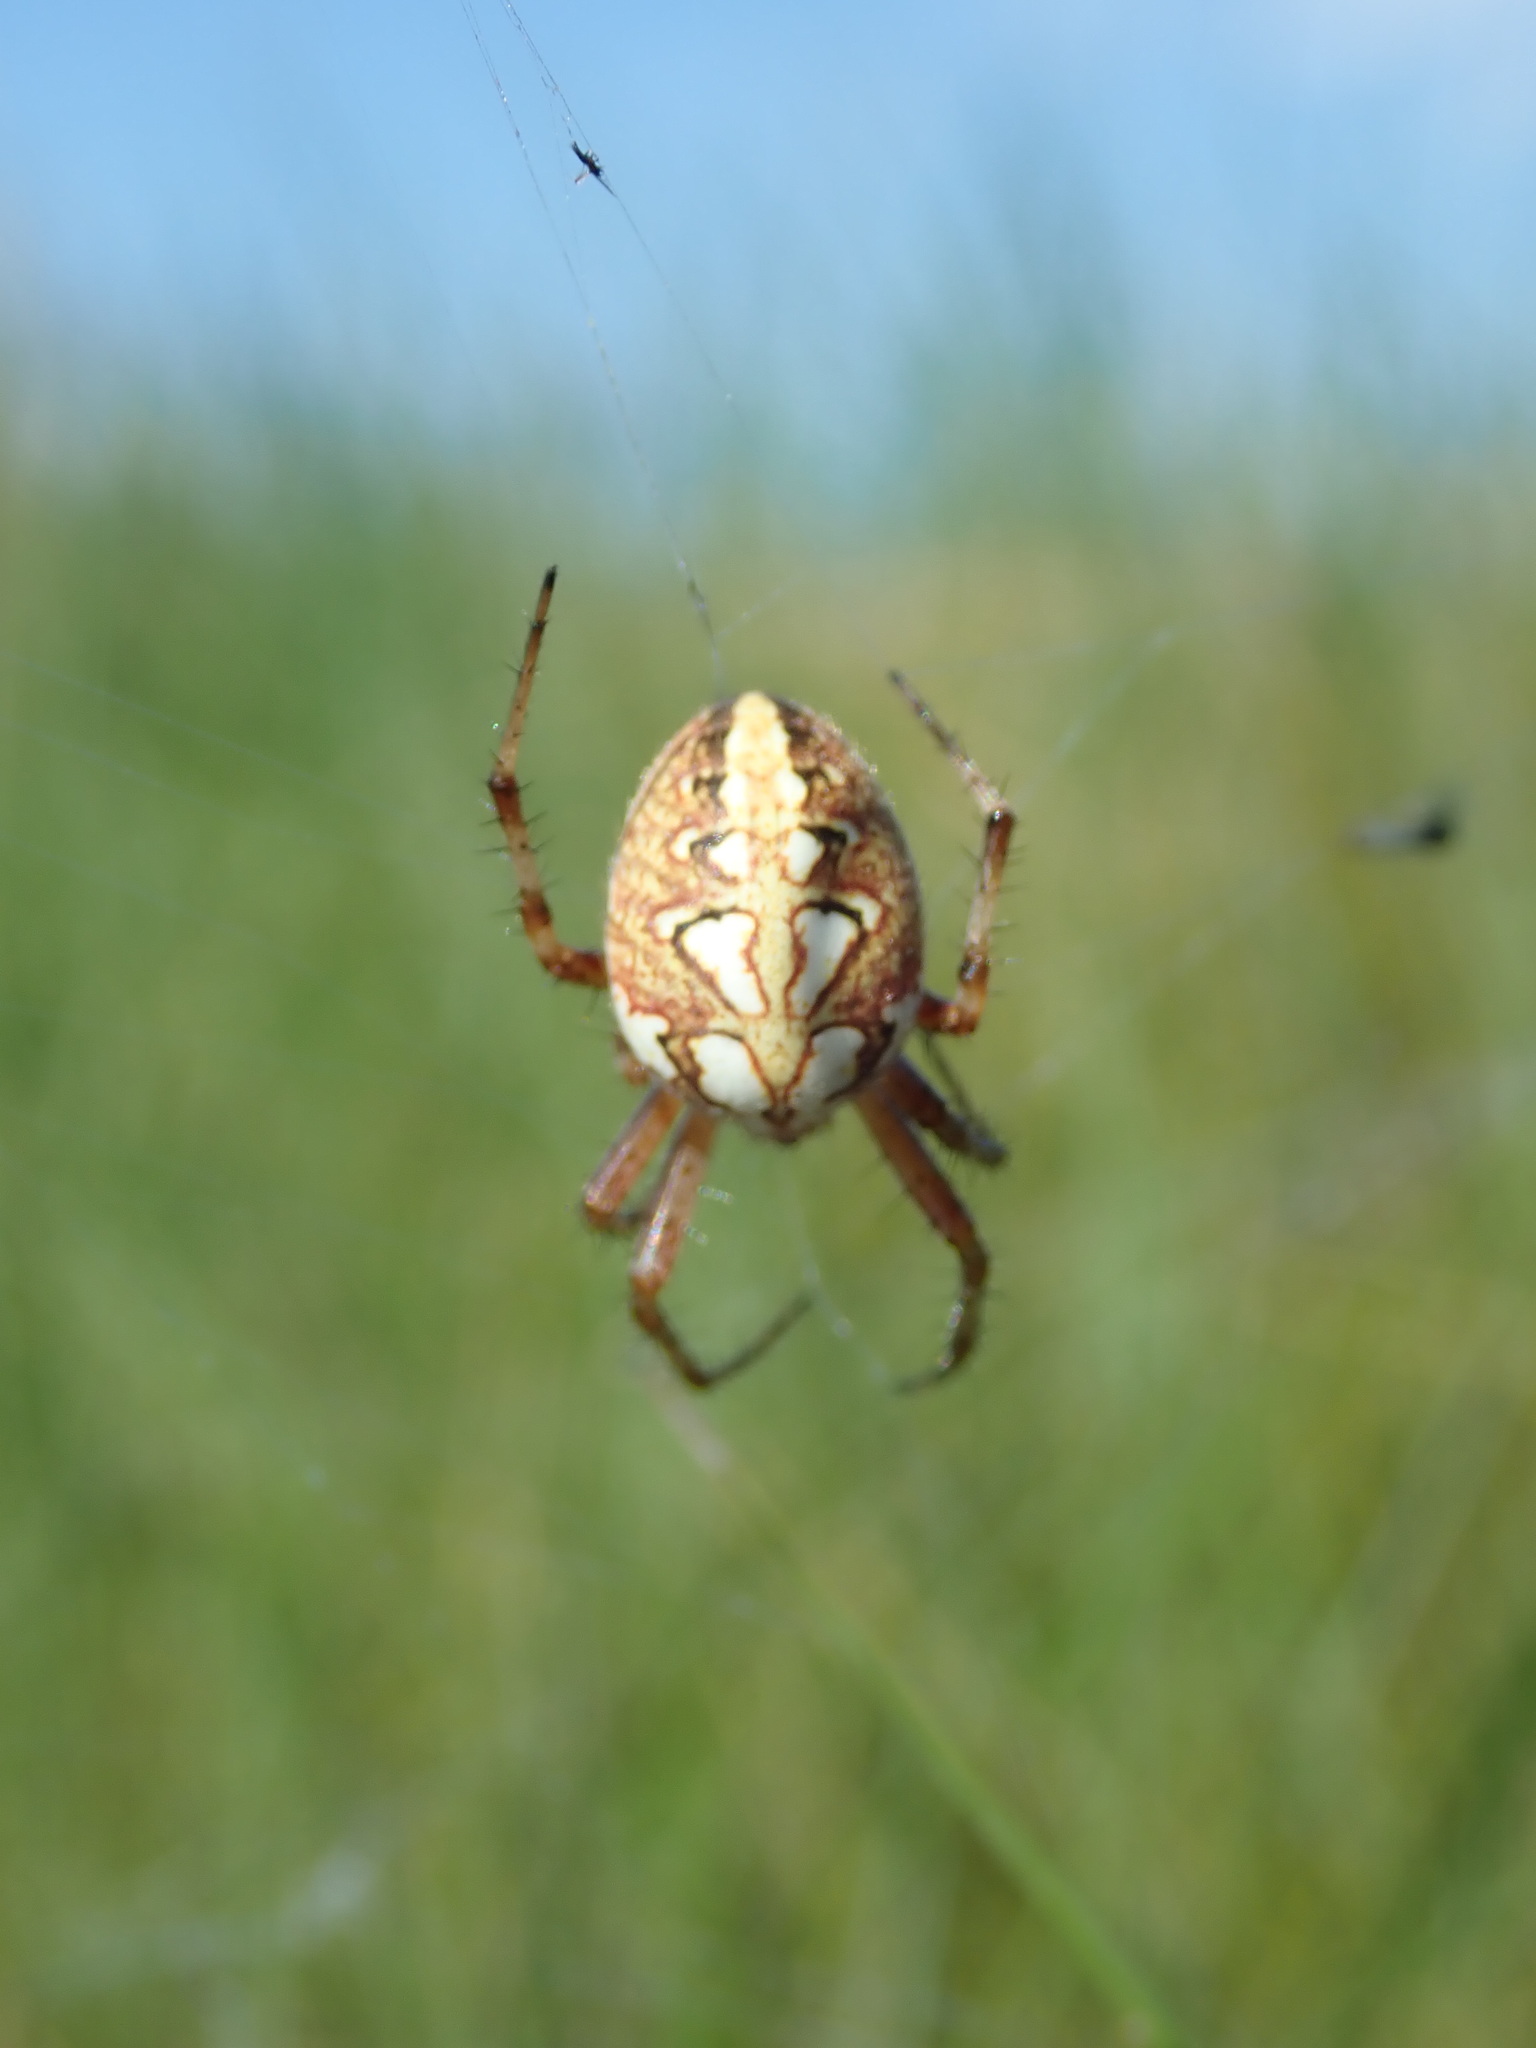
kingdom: Animalia
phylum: Arthropoda
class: Arachnida
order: Araneae
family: Araneidae
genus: Neoscona
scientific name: Neoscona adianta
